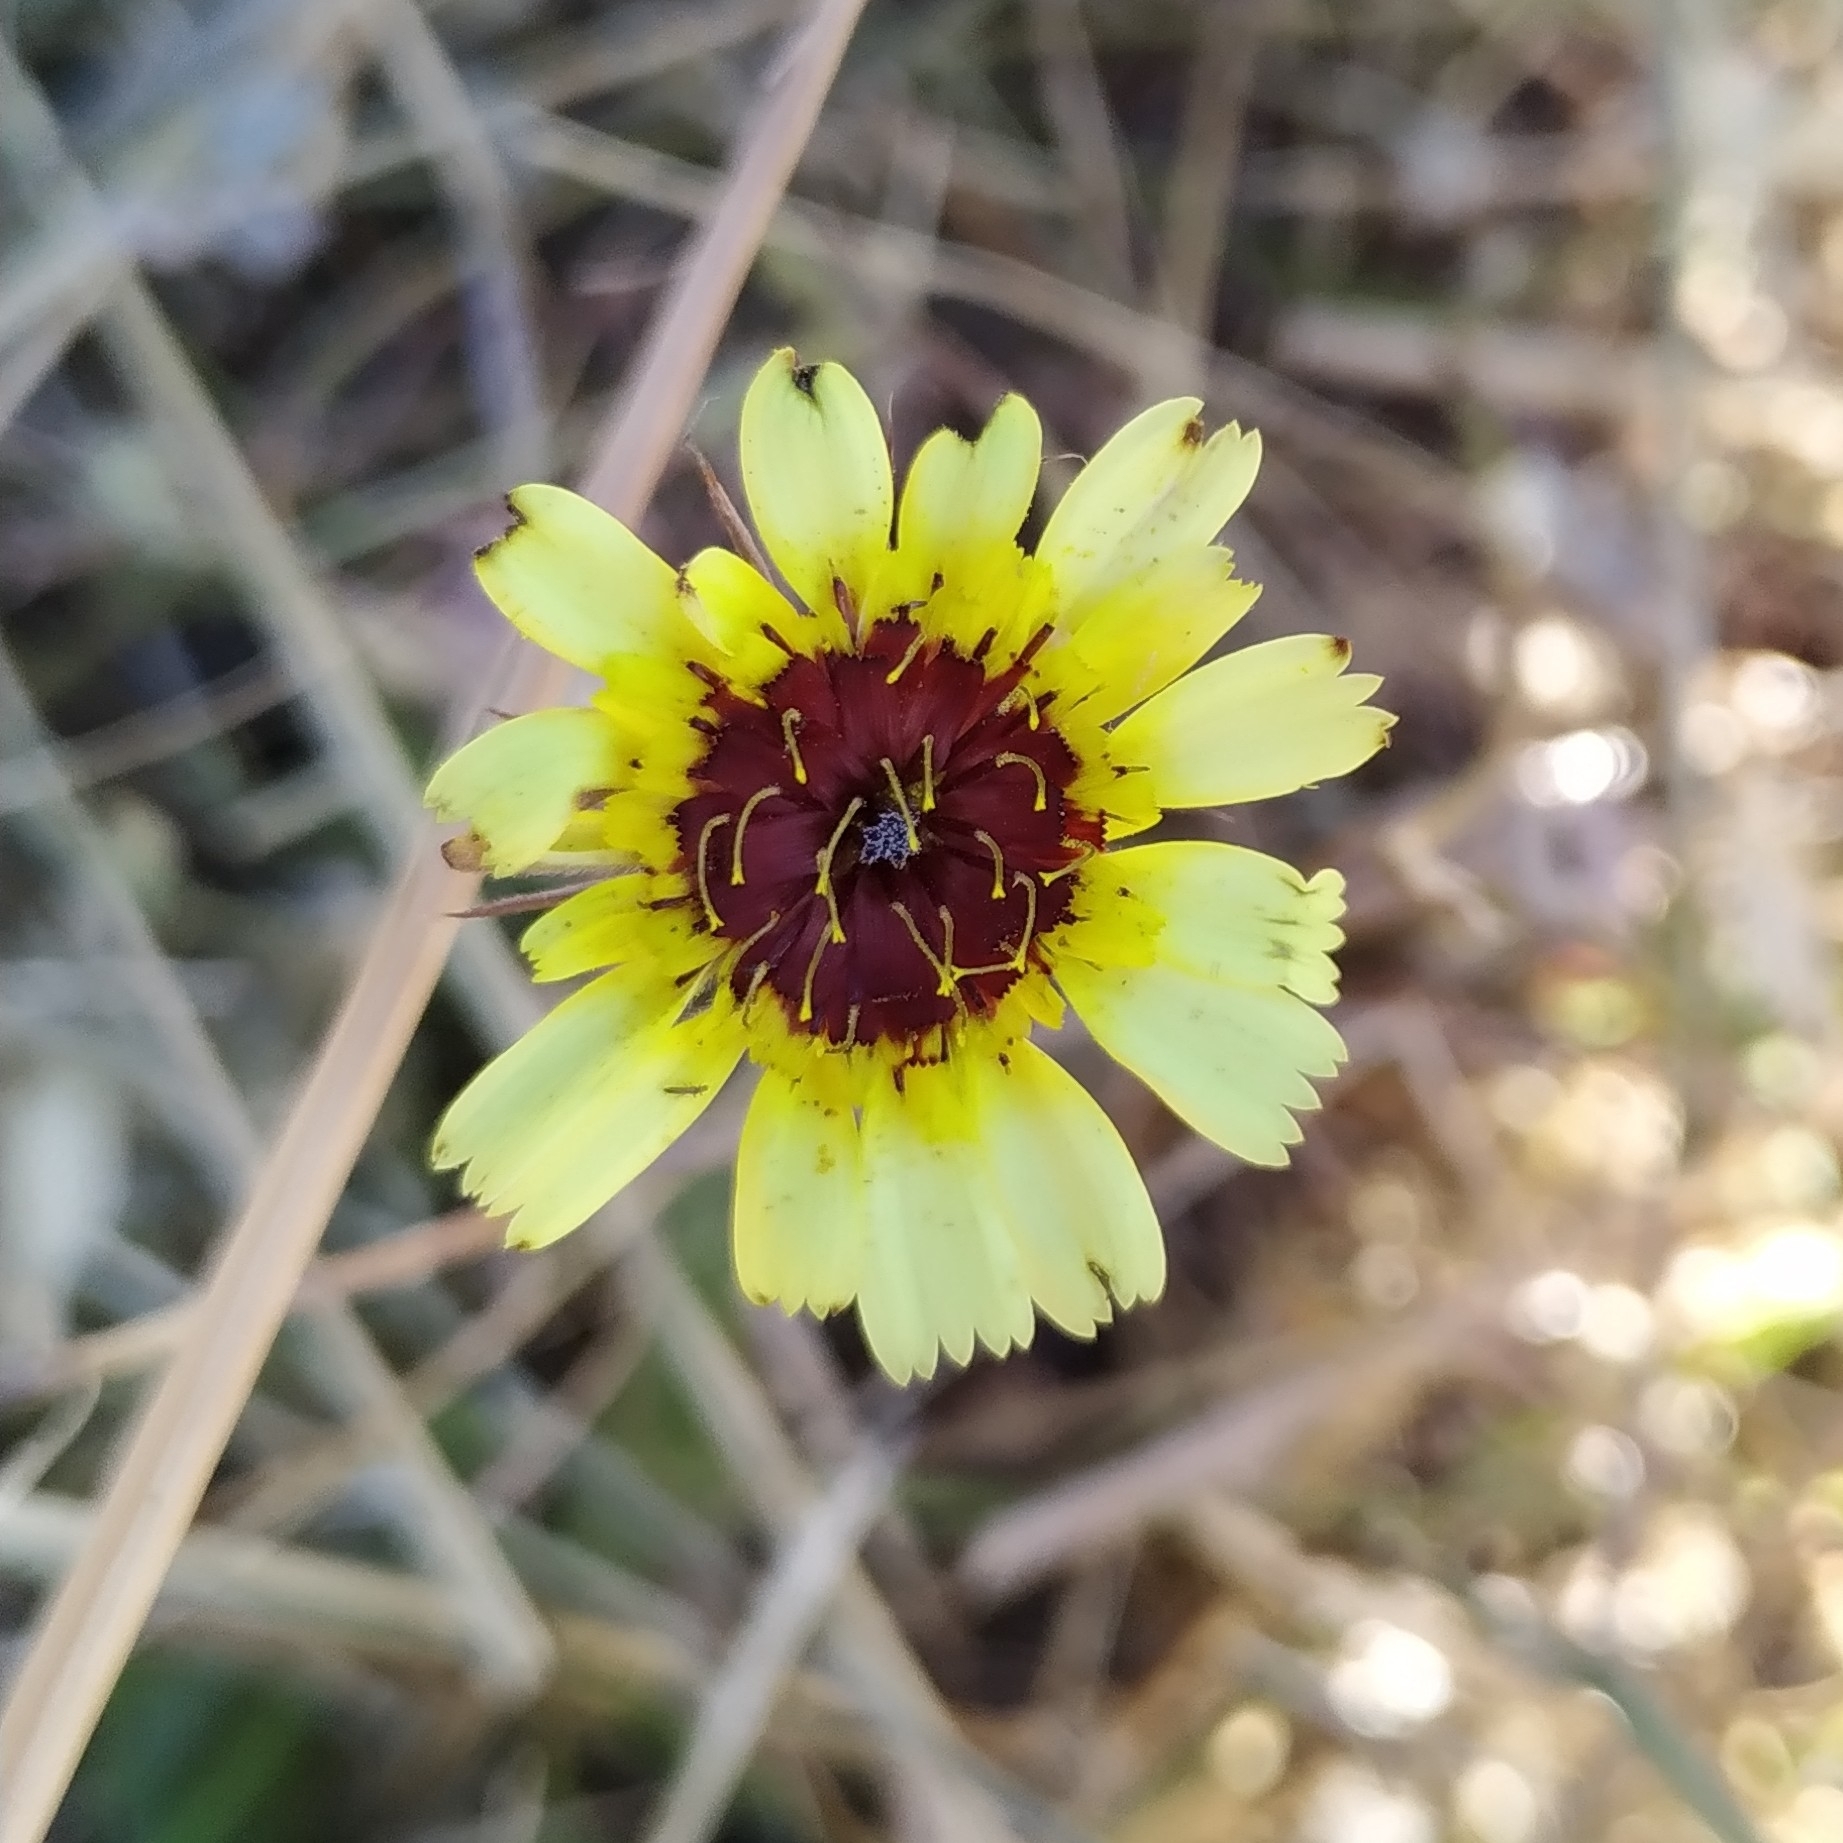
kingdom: Plantae
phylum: Tracheophyta
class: Magnoliopsida
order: Asterales
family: Asteraceae
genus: Tolpis
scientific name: Tolpis barbata
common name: Yellow hawkweed
